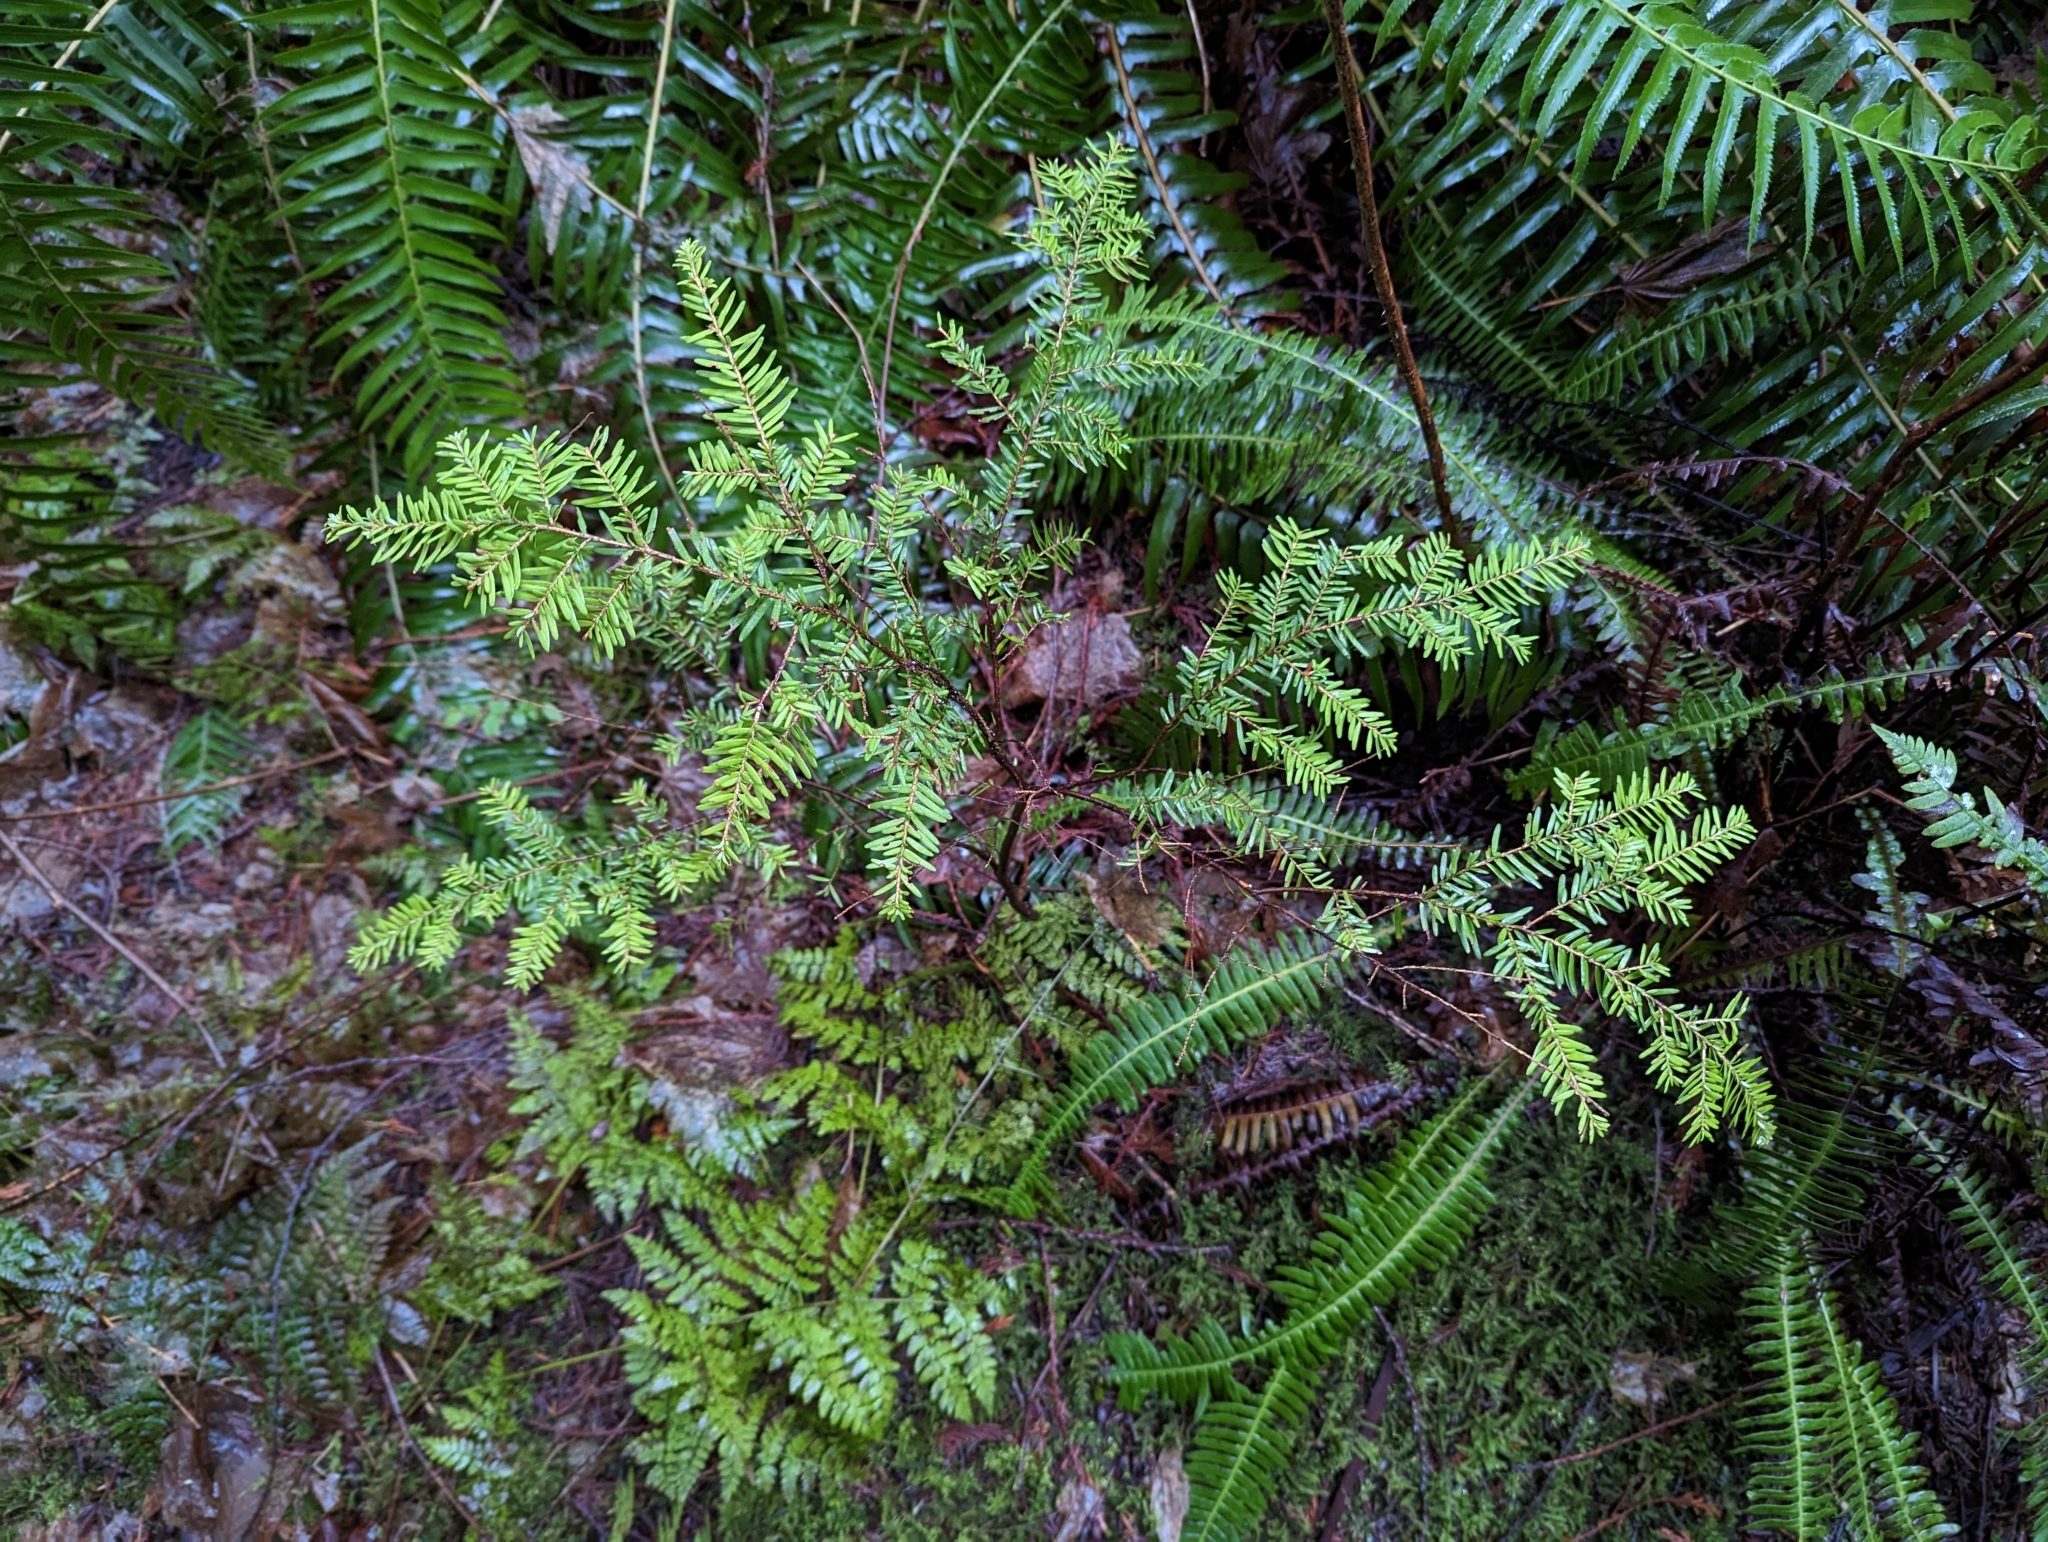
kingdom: Plantae
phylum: Tracheophyta
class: Pinopsida
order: Pinales
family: Pinaceae
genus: Tsuga
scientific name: Tsuga heterophylla
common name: Western hemlock
